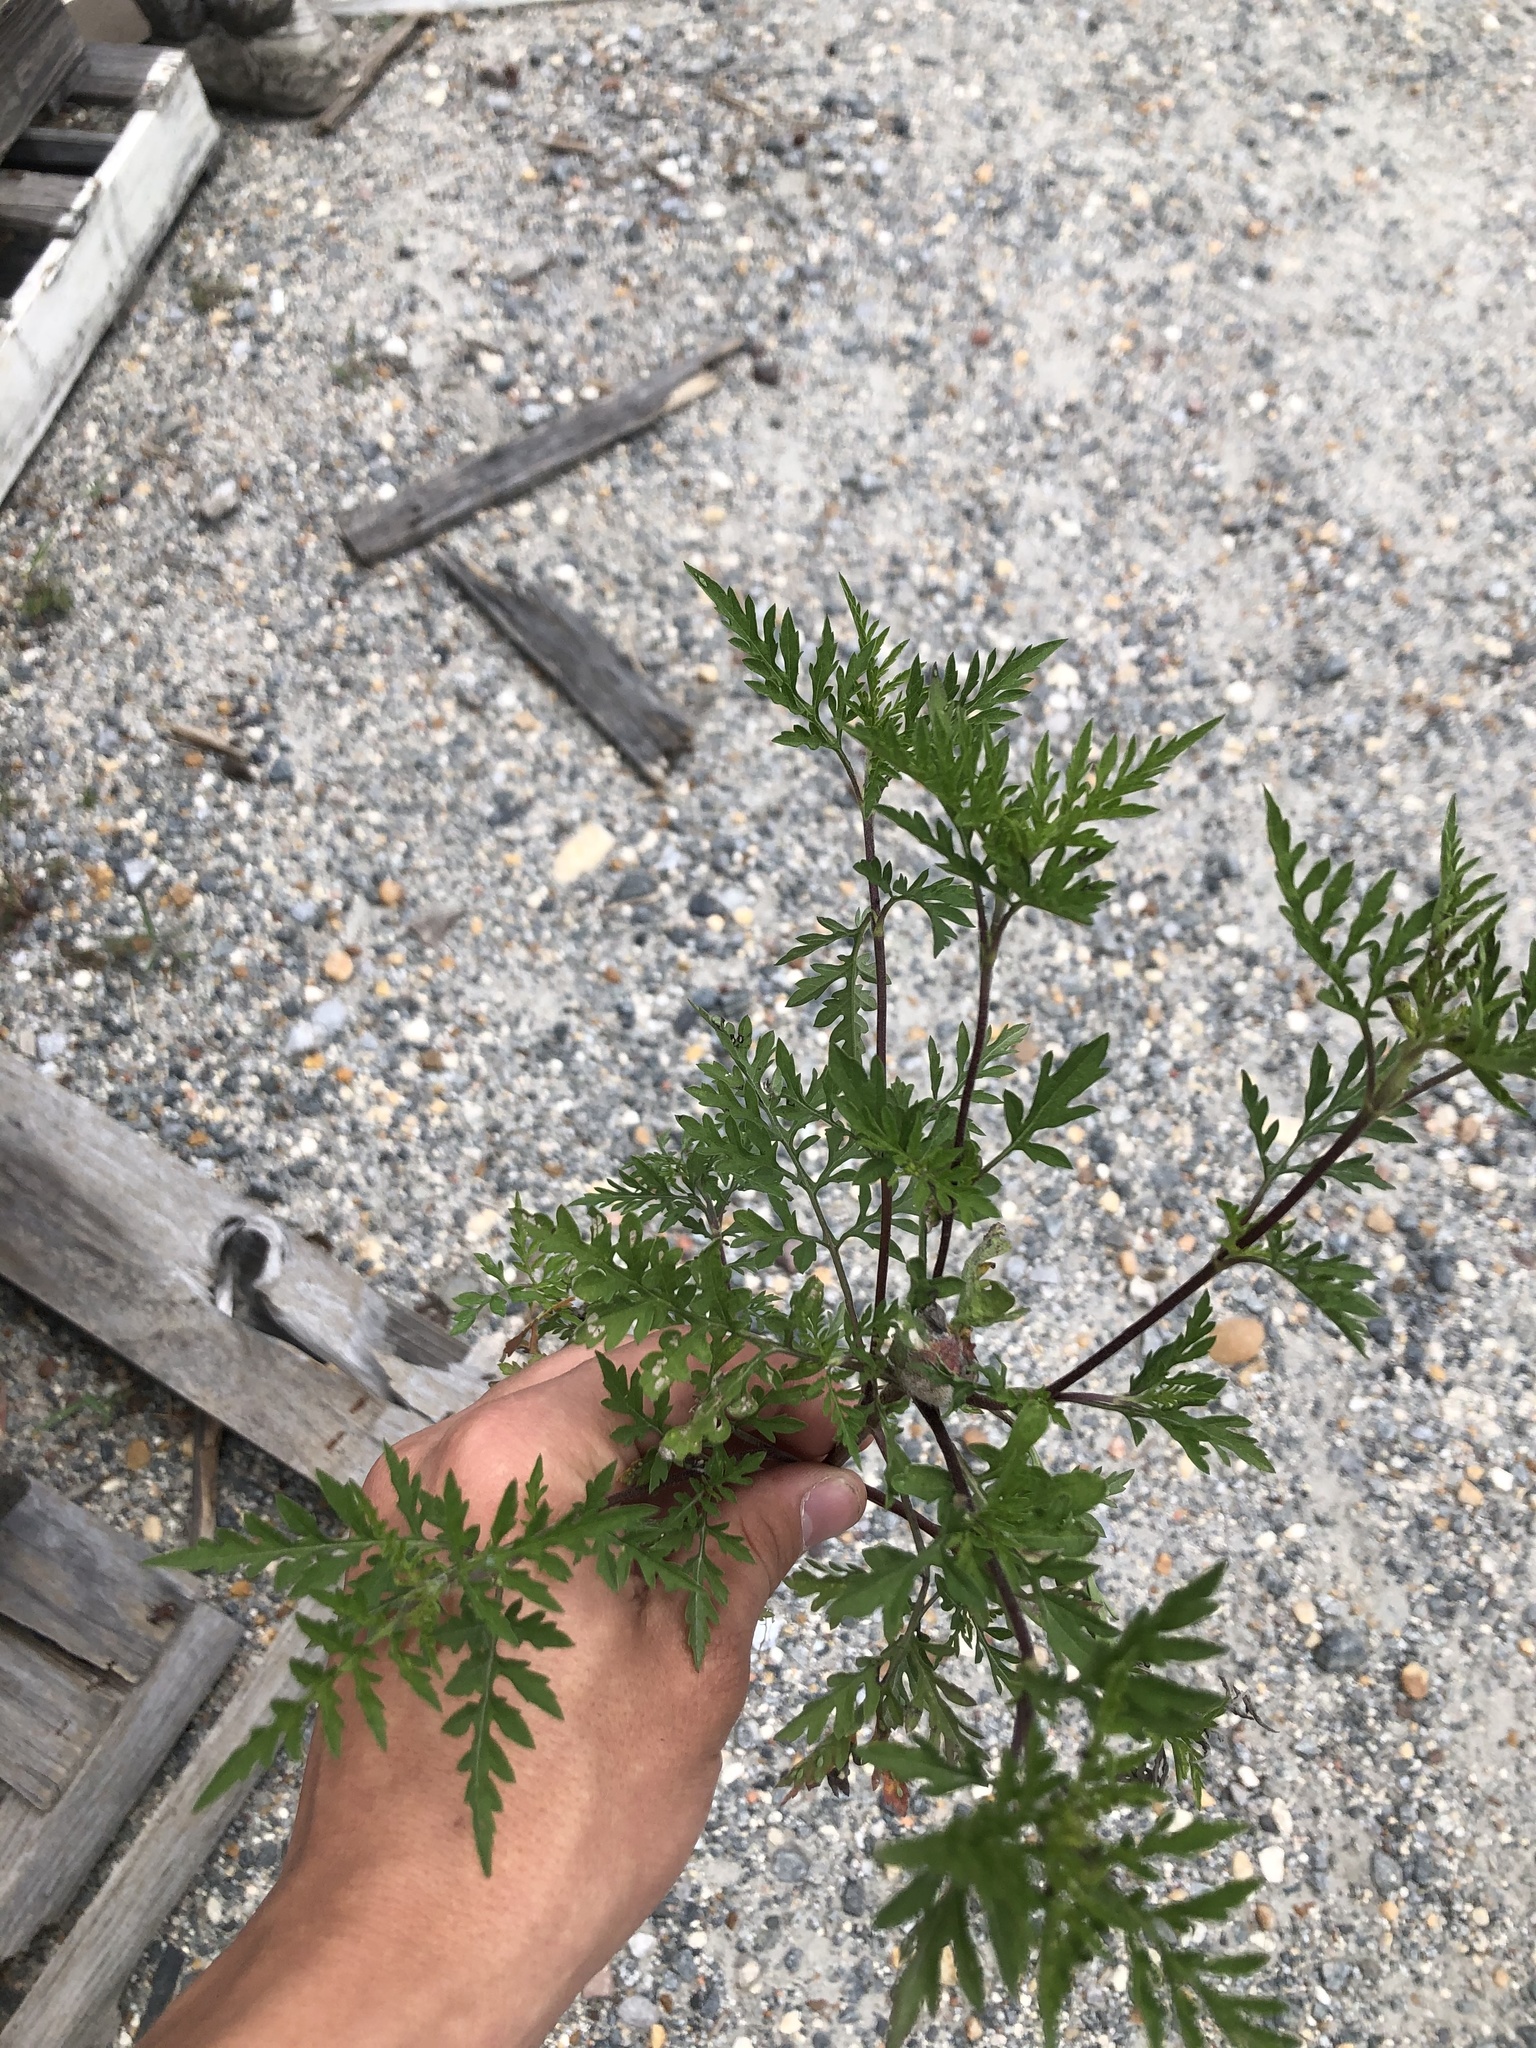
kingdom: Plantae
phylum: Tracheophyta
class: Magnoliopsida
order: Asterales
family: Asteraceae
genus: Ambrosia
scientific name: Ambrosia artemisiifolia
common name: Annual ragweed
